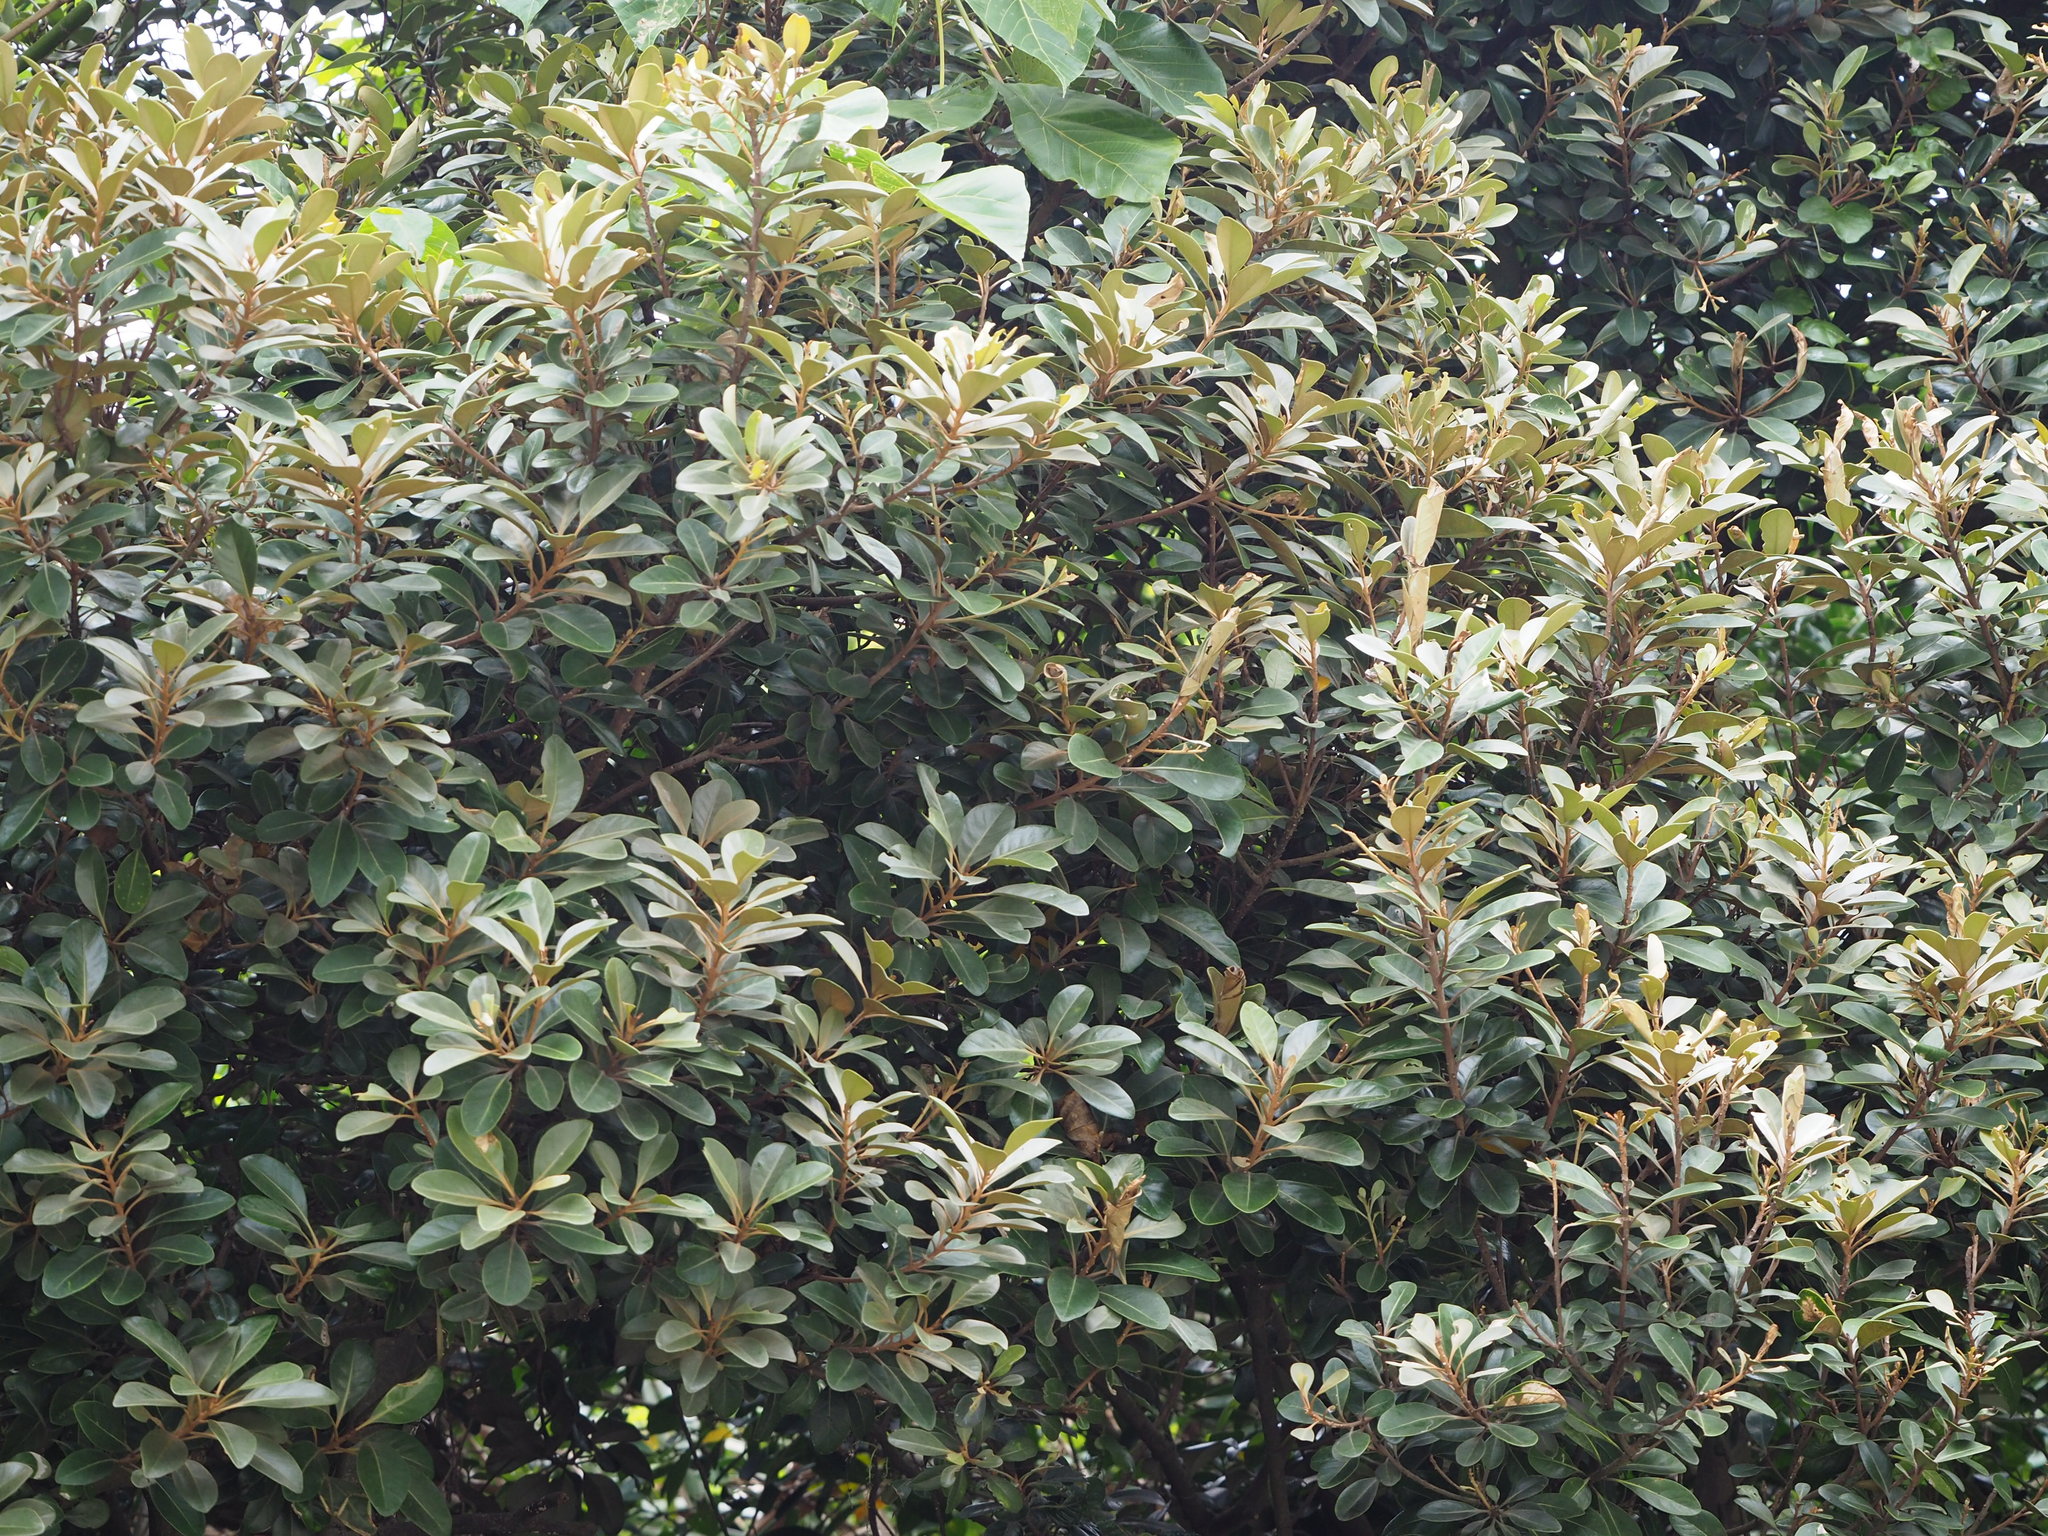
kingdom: Plantae
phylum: Tracheophyta
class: Magnoliopsida
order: Ericales
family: Sapotaceae
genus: Planchonella
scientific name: Planchonella obovata
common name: Black-ash
